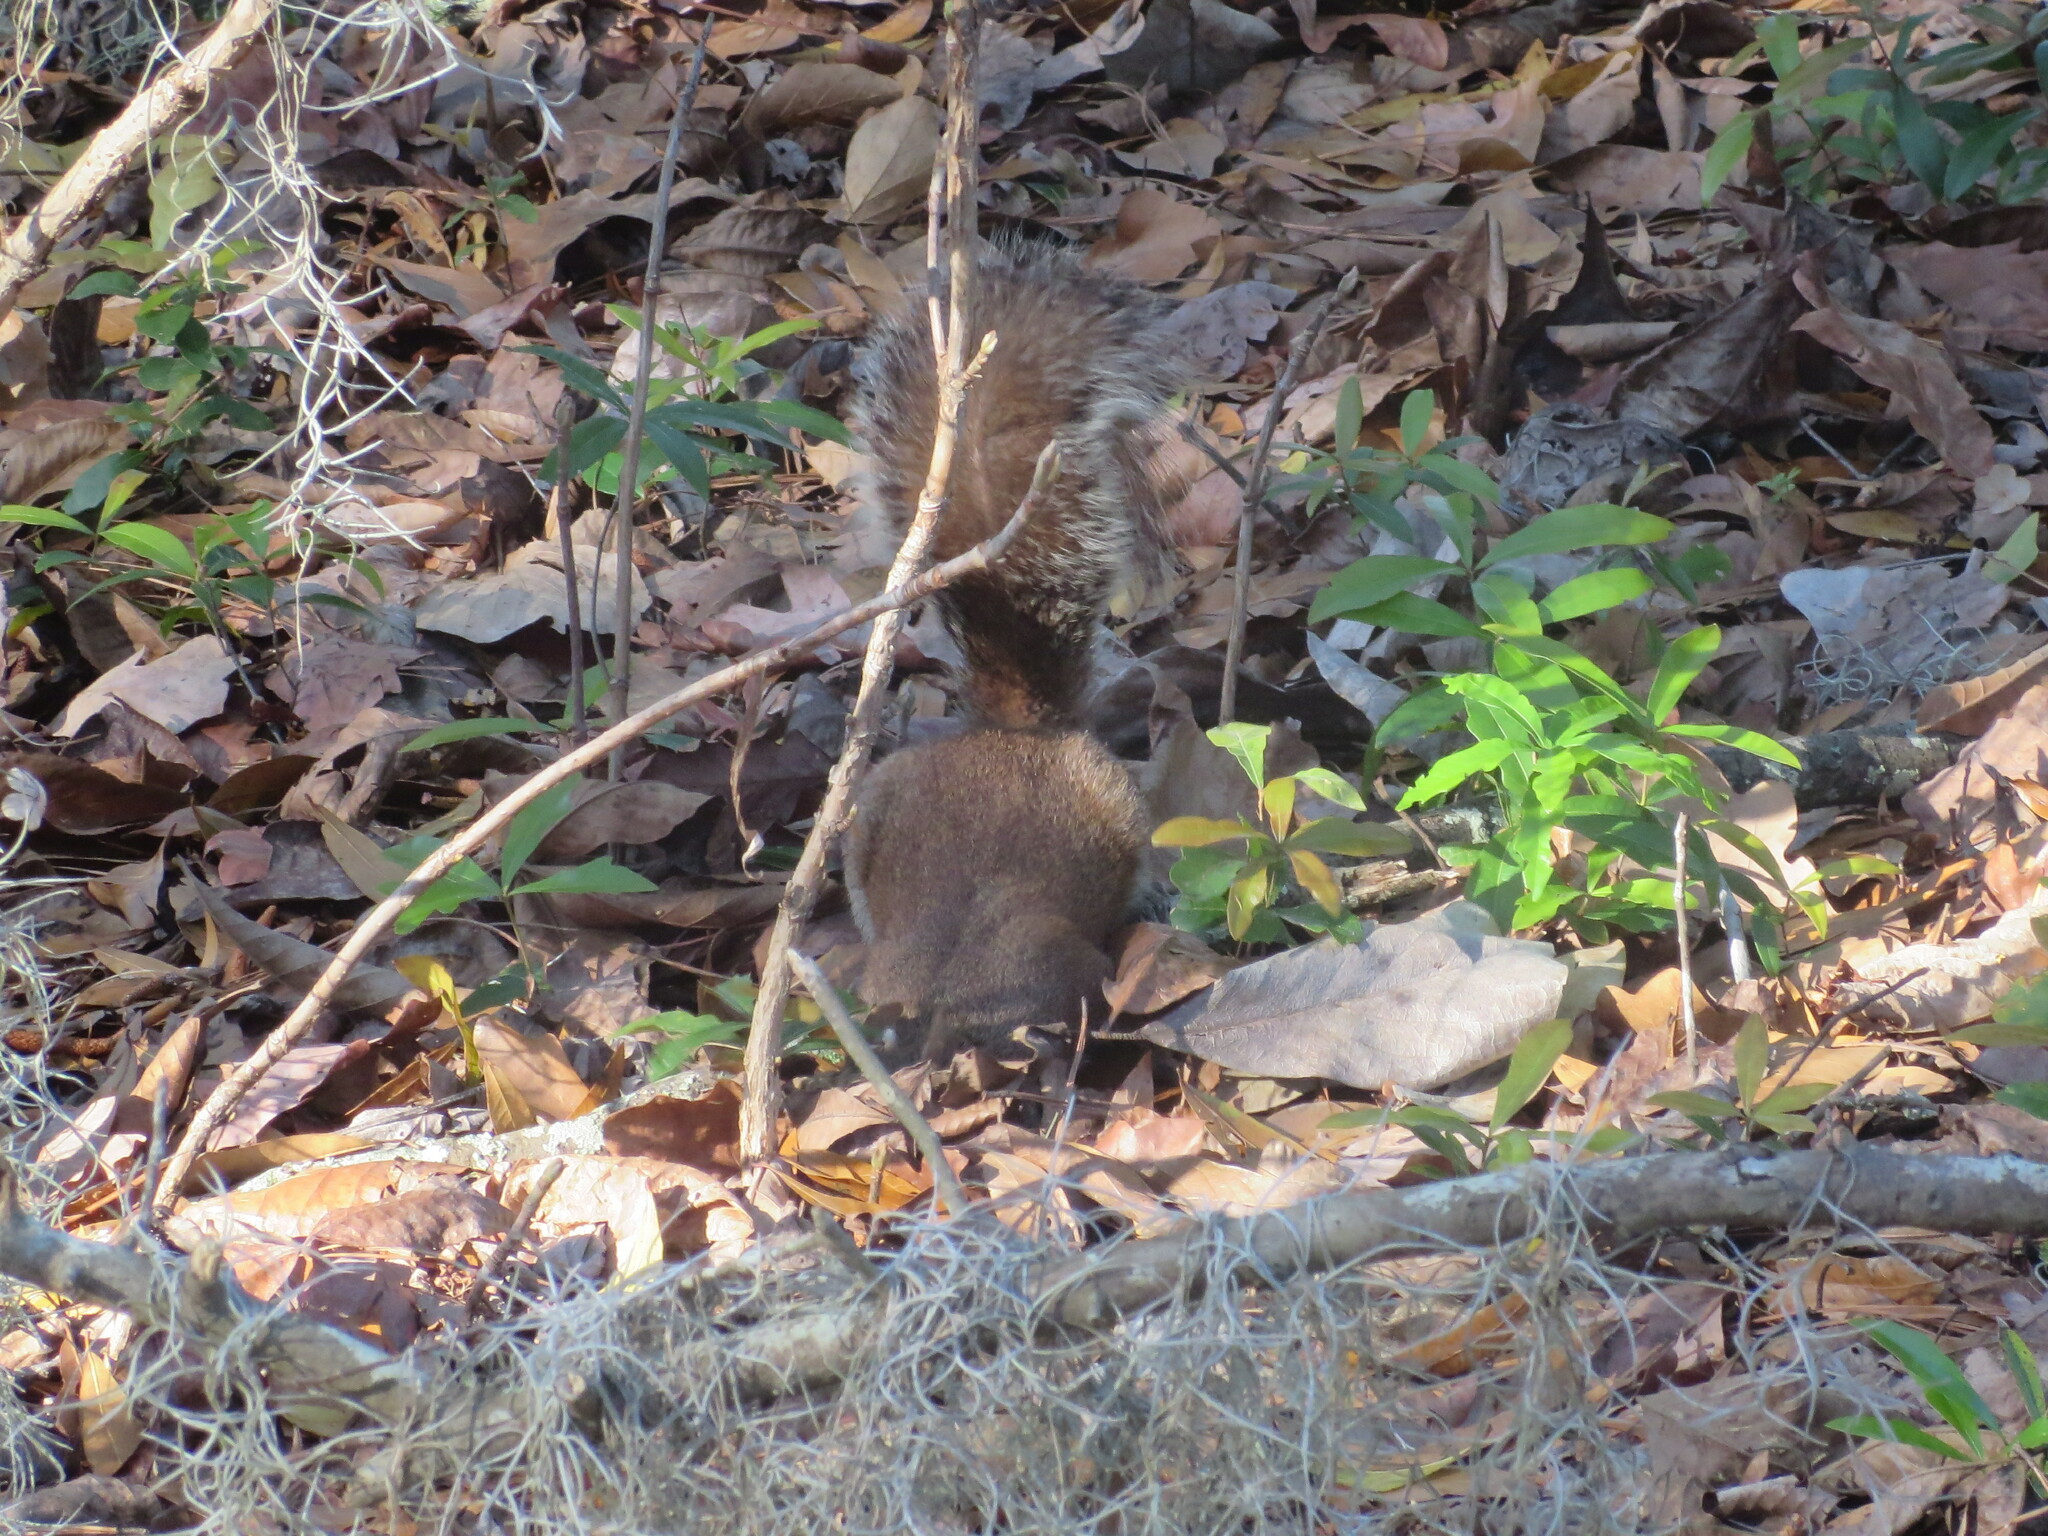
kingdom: Animalia
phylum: Chordata
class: Mammalia
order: Rodentia
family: Sciuridae
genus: Sciurus
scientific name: Sciurus carolinensis
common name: Eastern gray squirrel
